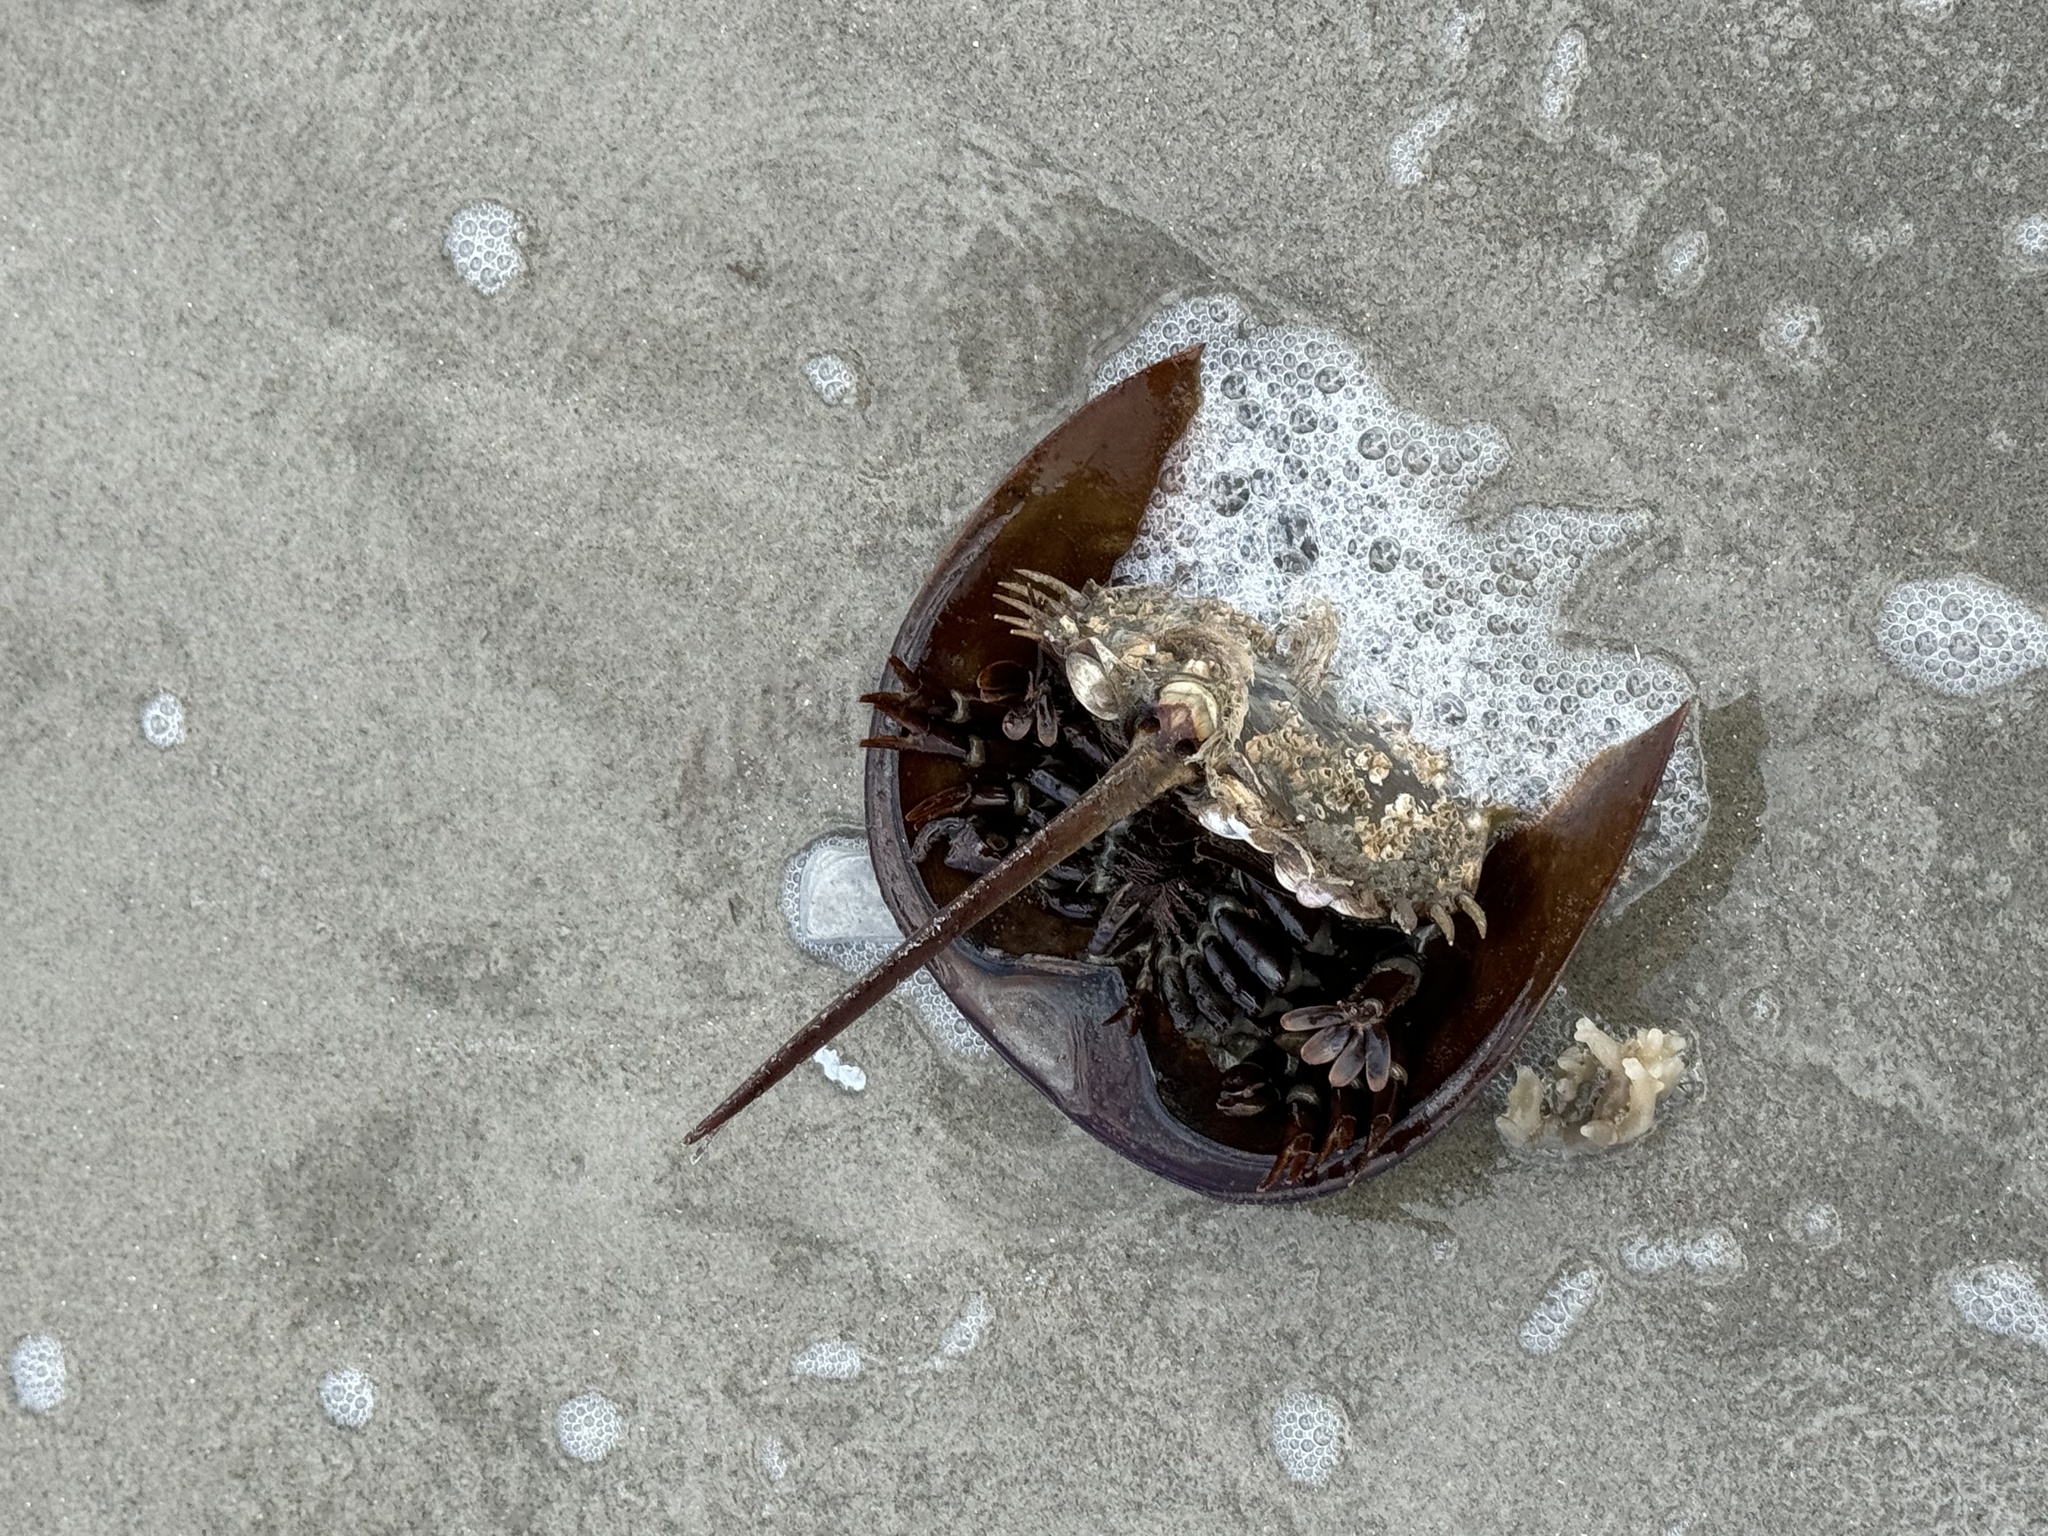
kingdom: Animalia
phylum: Arthropoda
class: Merostomata
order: Xiphosurida
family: Limulidae
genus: Limulus
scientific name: Limulus polyphemus
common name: Horseshoe crab
